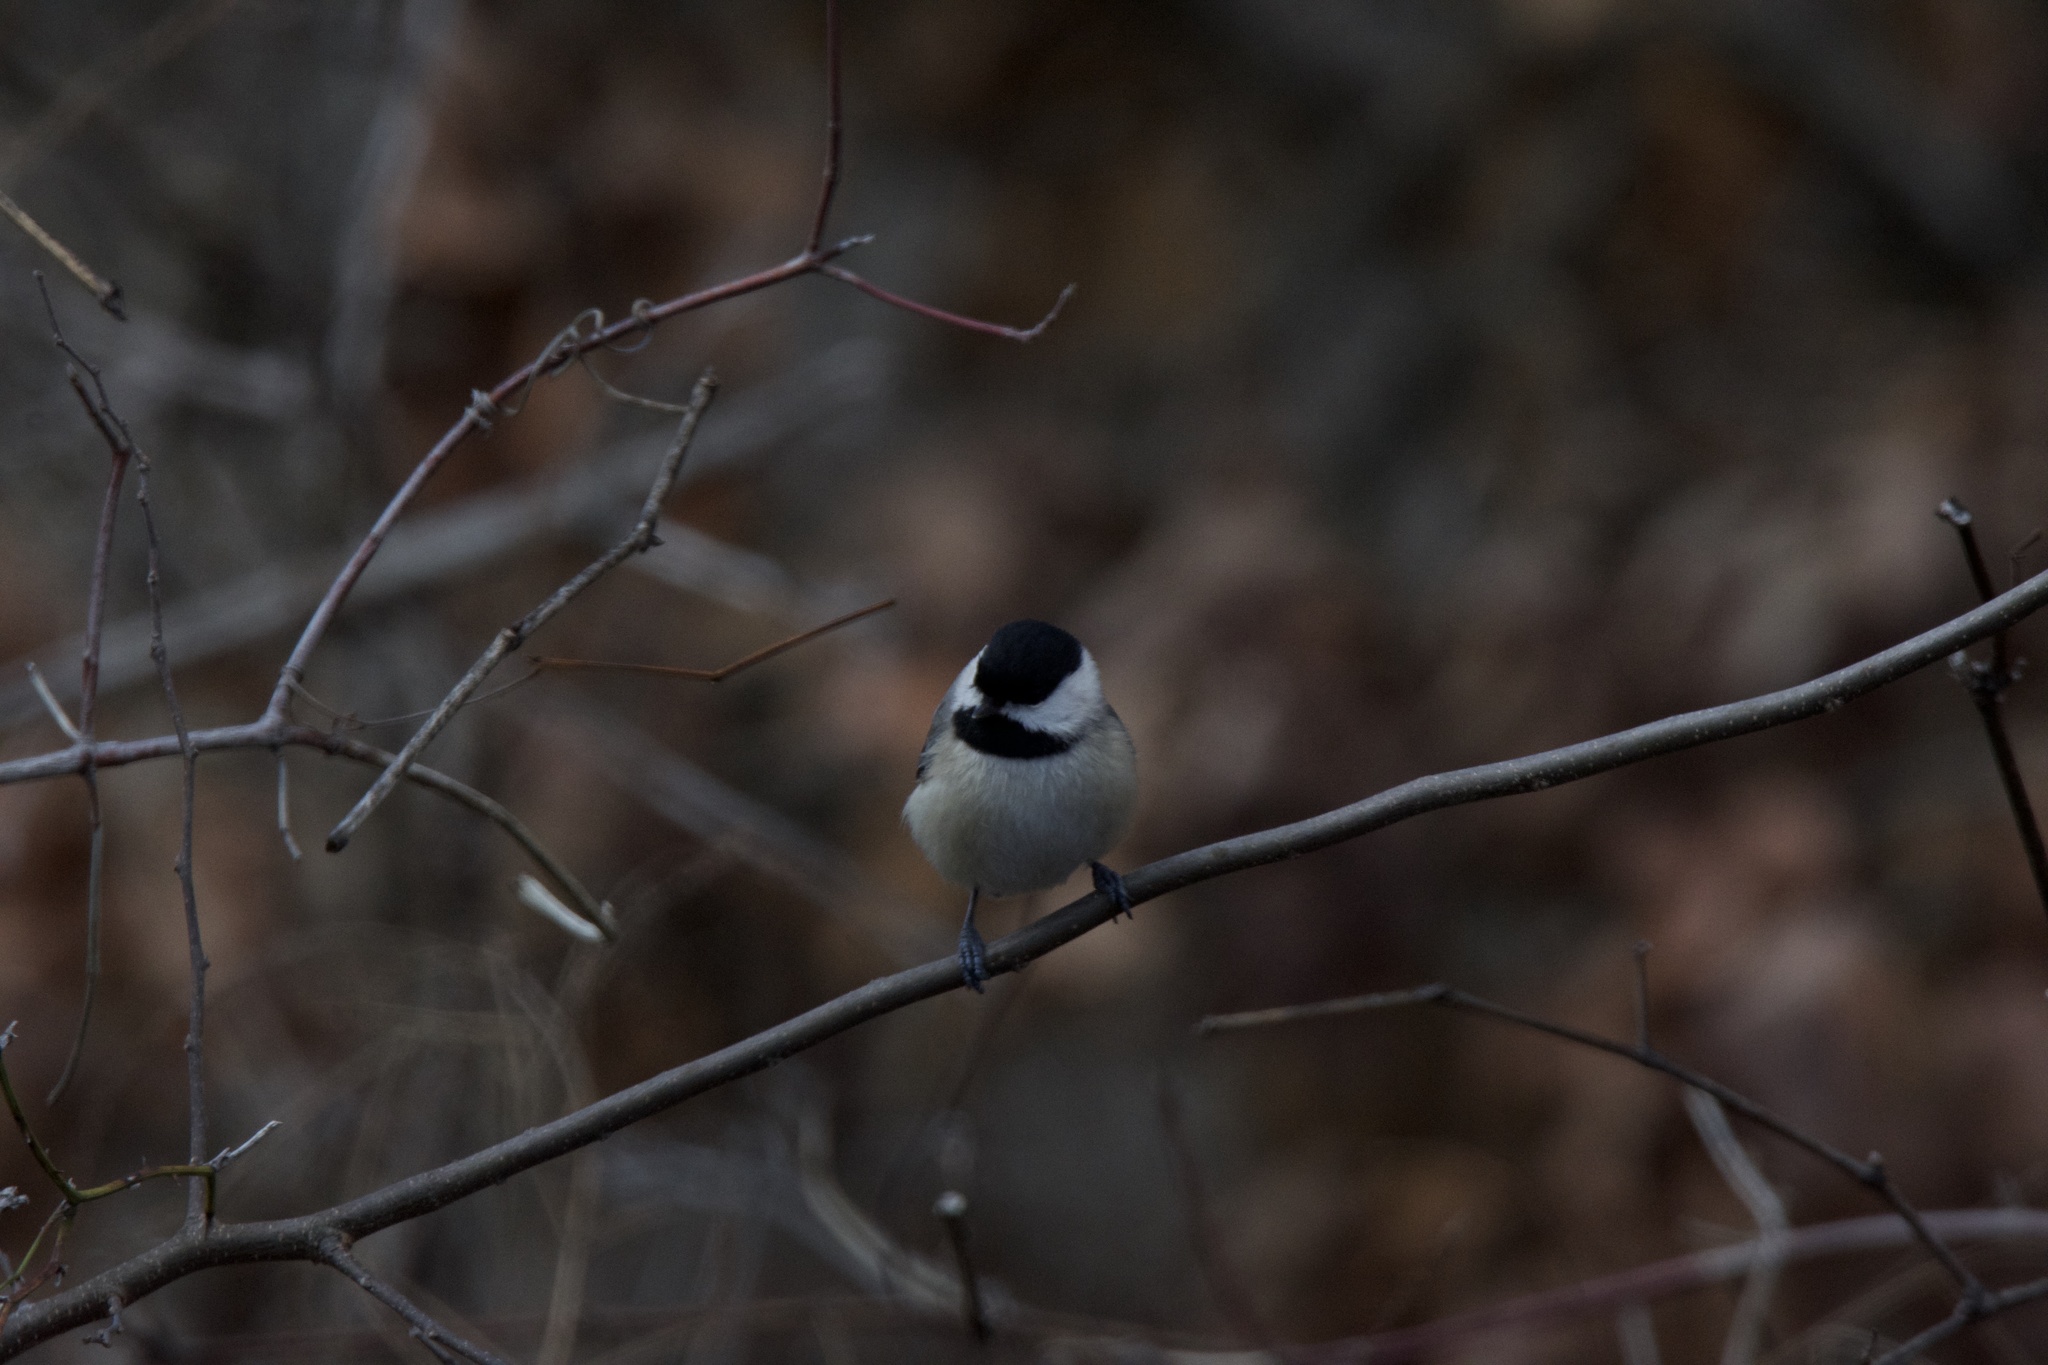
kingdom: Animalia
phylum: Chordata
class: Aves
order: Passeriformes
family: Paridae
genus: Poecile
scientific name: Poecile carolinensis
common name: Carolina chickadee
